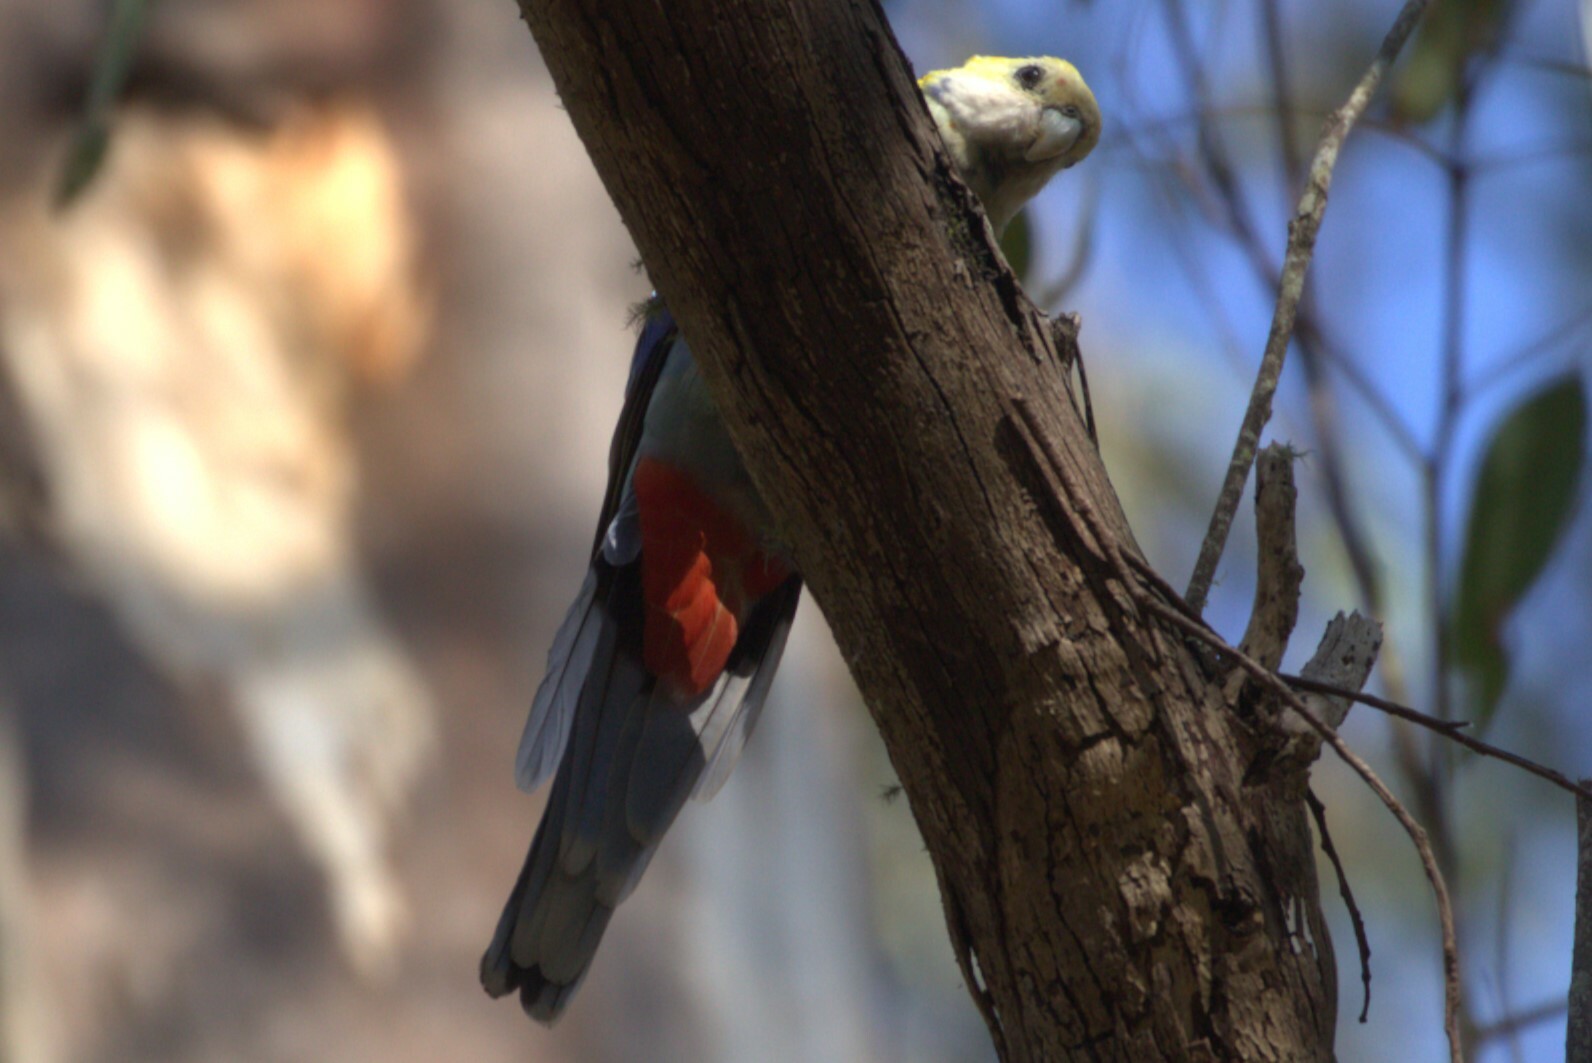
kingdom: Animalia
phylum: Chordata
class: Aves
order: Psittaciformes
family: Psittacidae
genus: Platycercus
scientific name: Platycercus adscitus
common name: Pale-headed rosella
